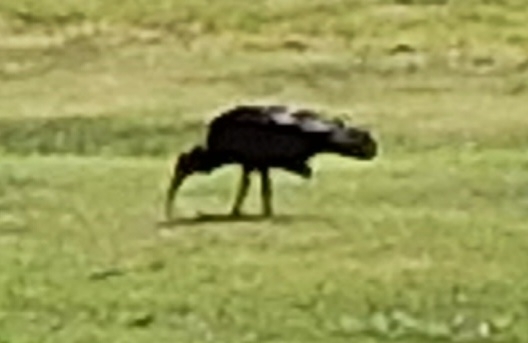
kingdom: Animalia
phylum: Chordata
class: Aves
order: Pelecaniformes
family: Threskiornithidae
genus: Geronticus
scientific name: Geronticus eremita
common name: Northern bald ibis
